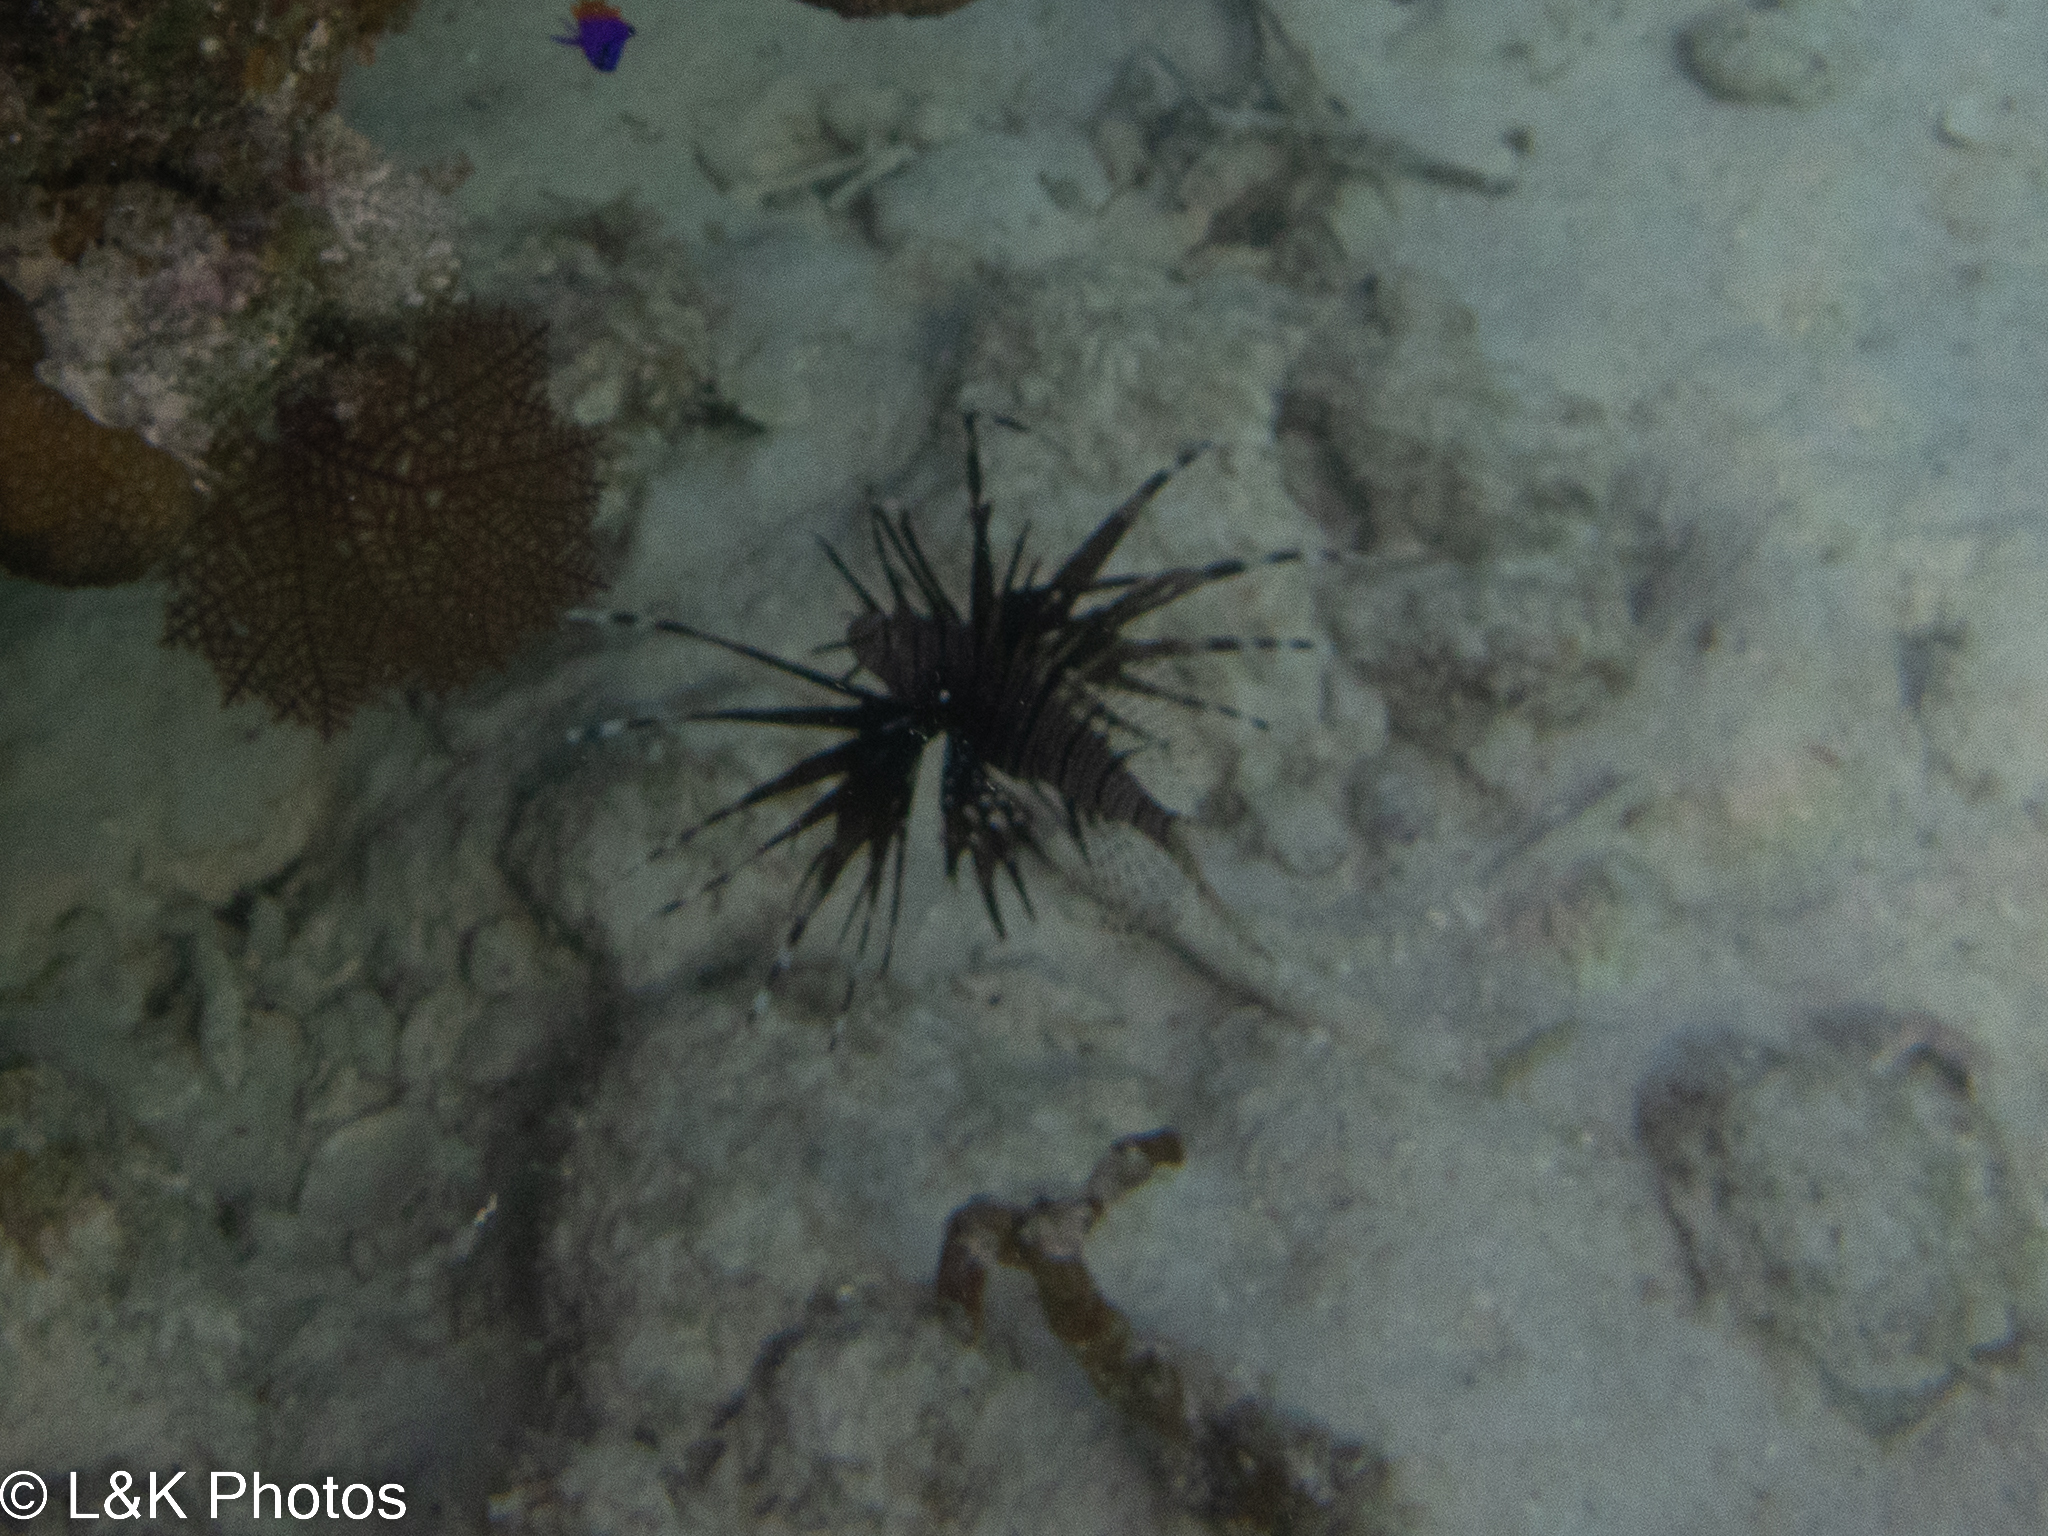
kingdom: Animalia
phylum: Chordata
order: Scorpaeniformes
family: Scorpaenidae
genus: Pterois
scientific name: Pterois volitans
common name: Lionfish
